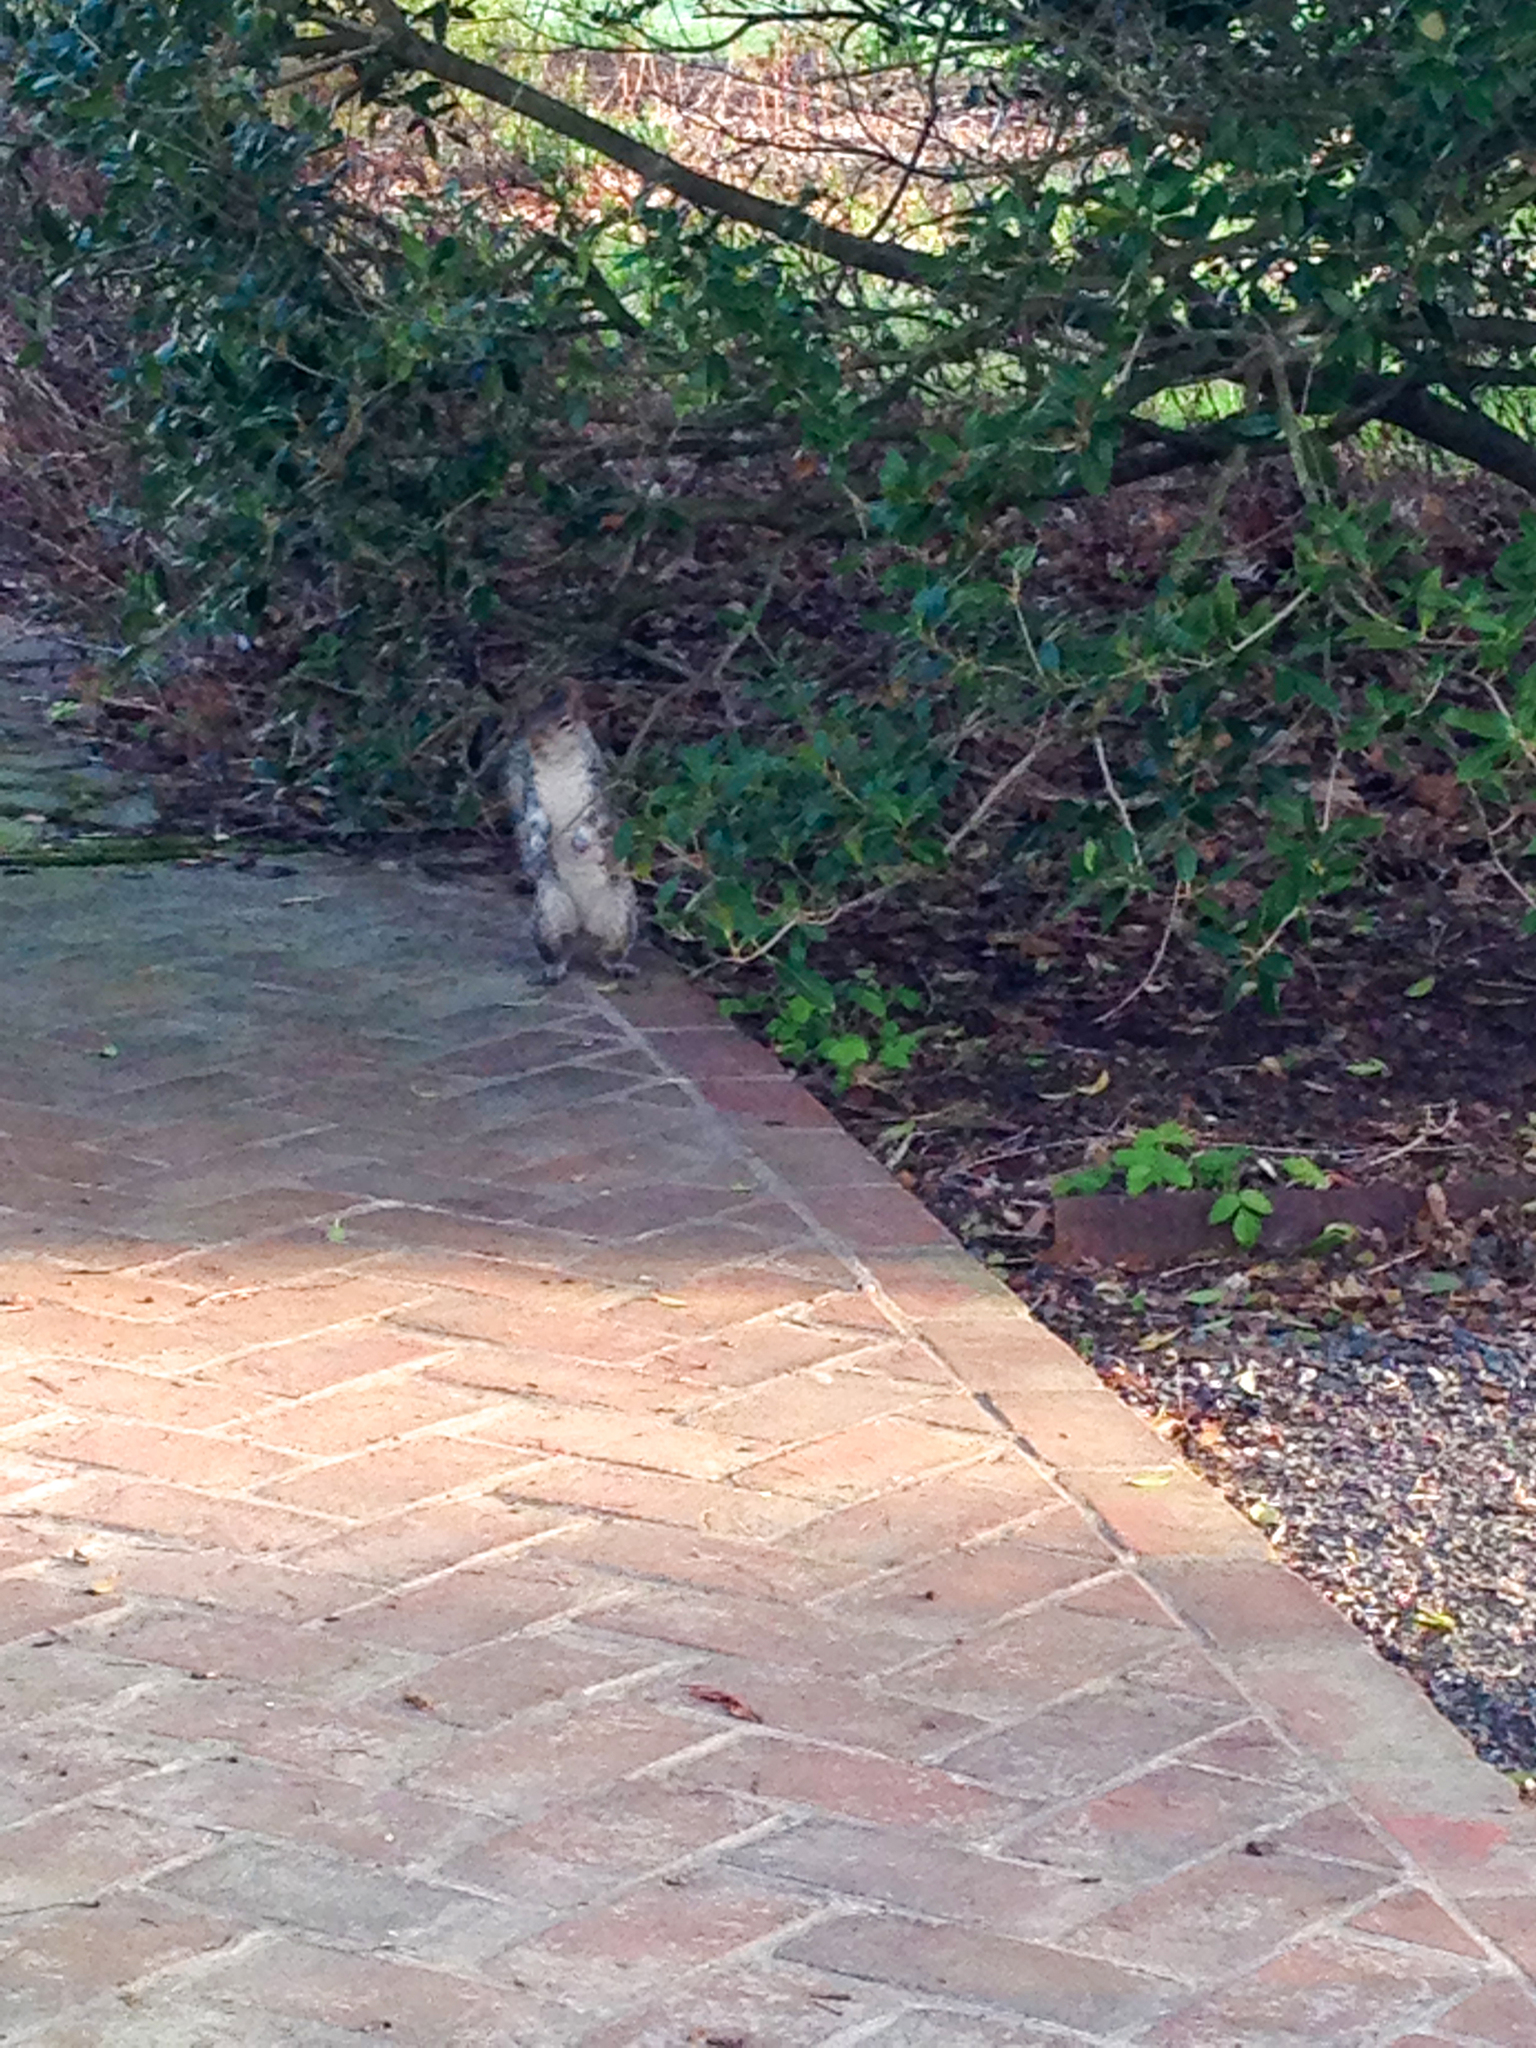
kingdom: Animalia
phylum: Chordata
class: Mammalia
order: Rodentia
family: Sciuridae
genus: Sciurus
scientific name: Sciurus carolinensis
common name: Eastern gray squirrel
